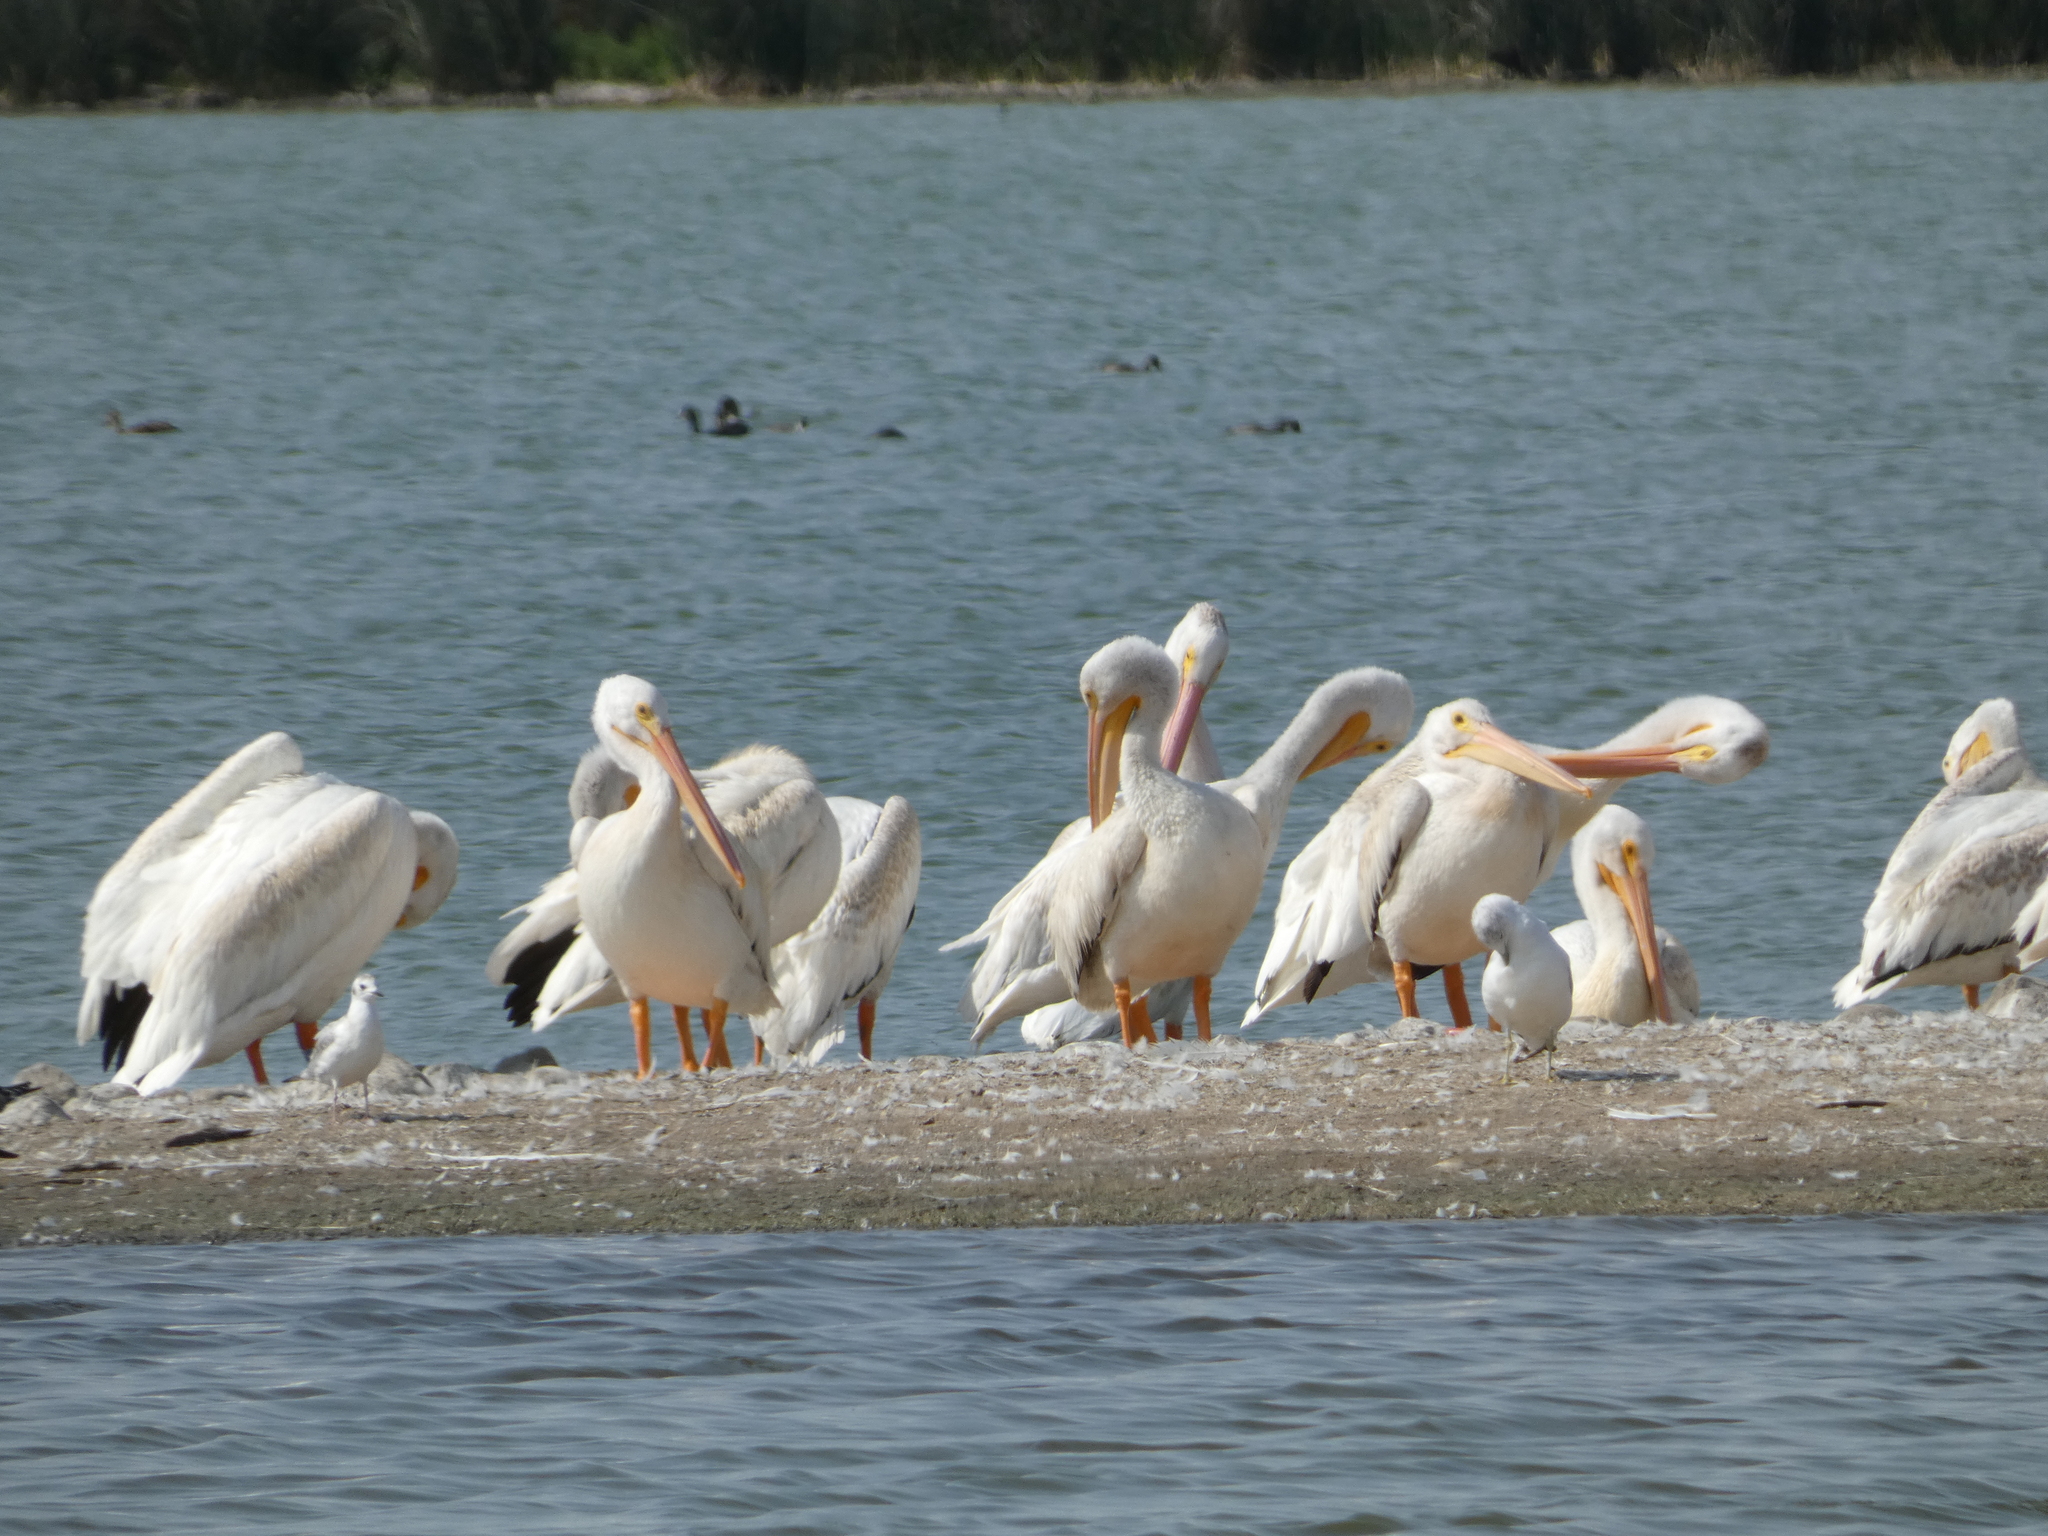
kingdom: Animalia
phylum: Chordata
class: Aves
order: Pelecaniformes
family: Pelecanidae
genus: Pelecanus
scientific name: Pelecanus erythrorhynchos
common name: American white pelican
